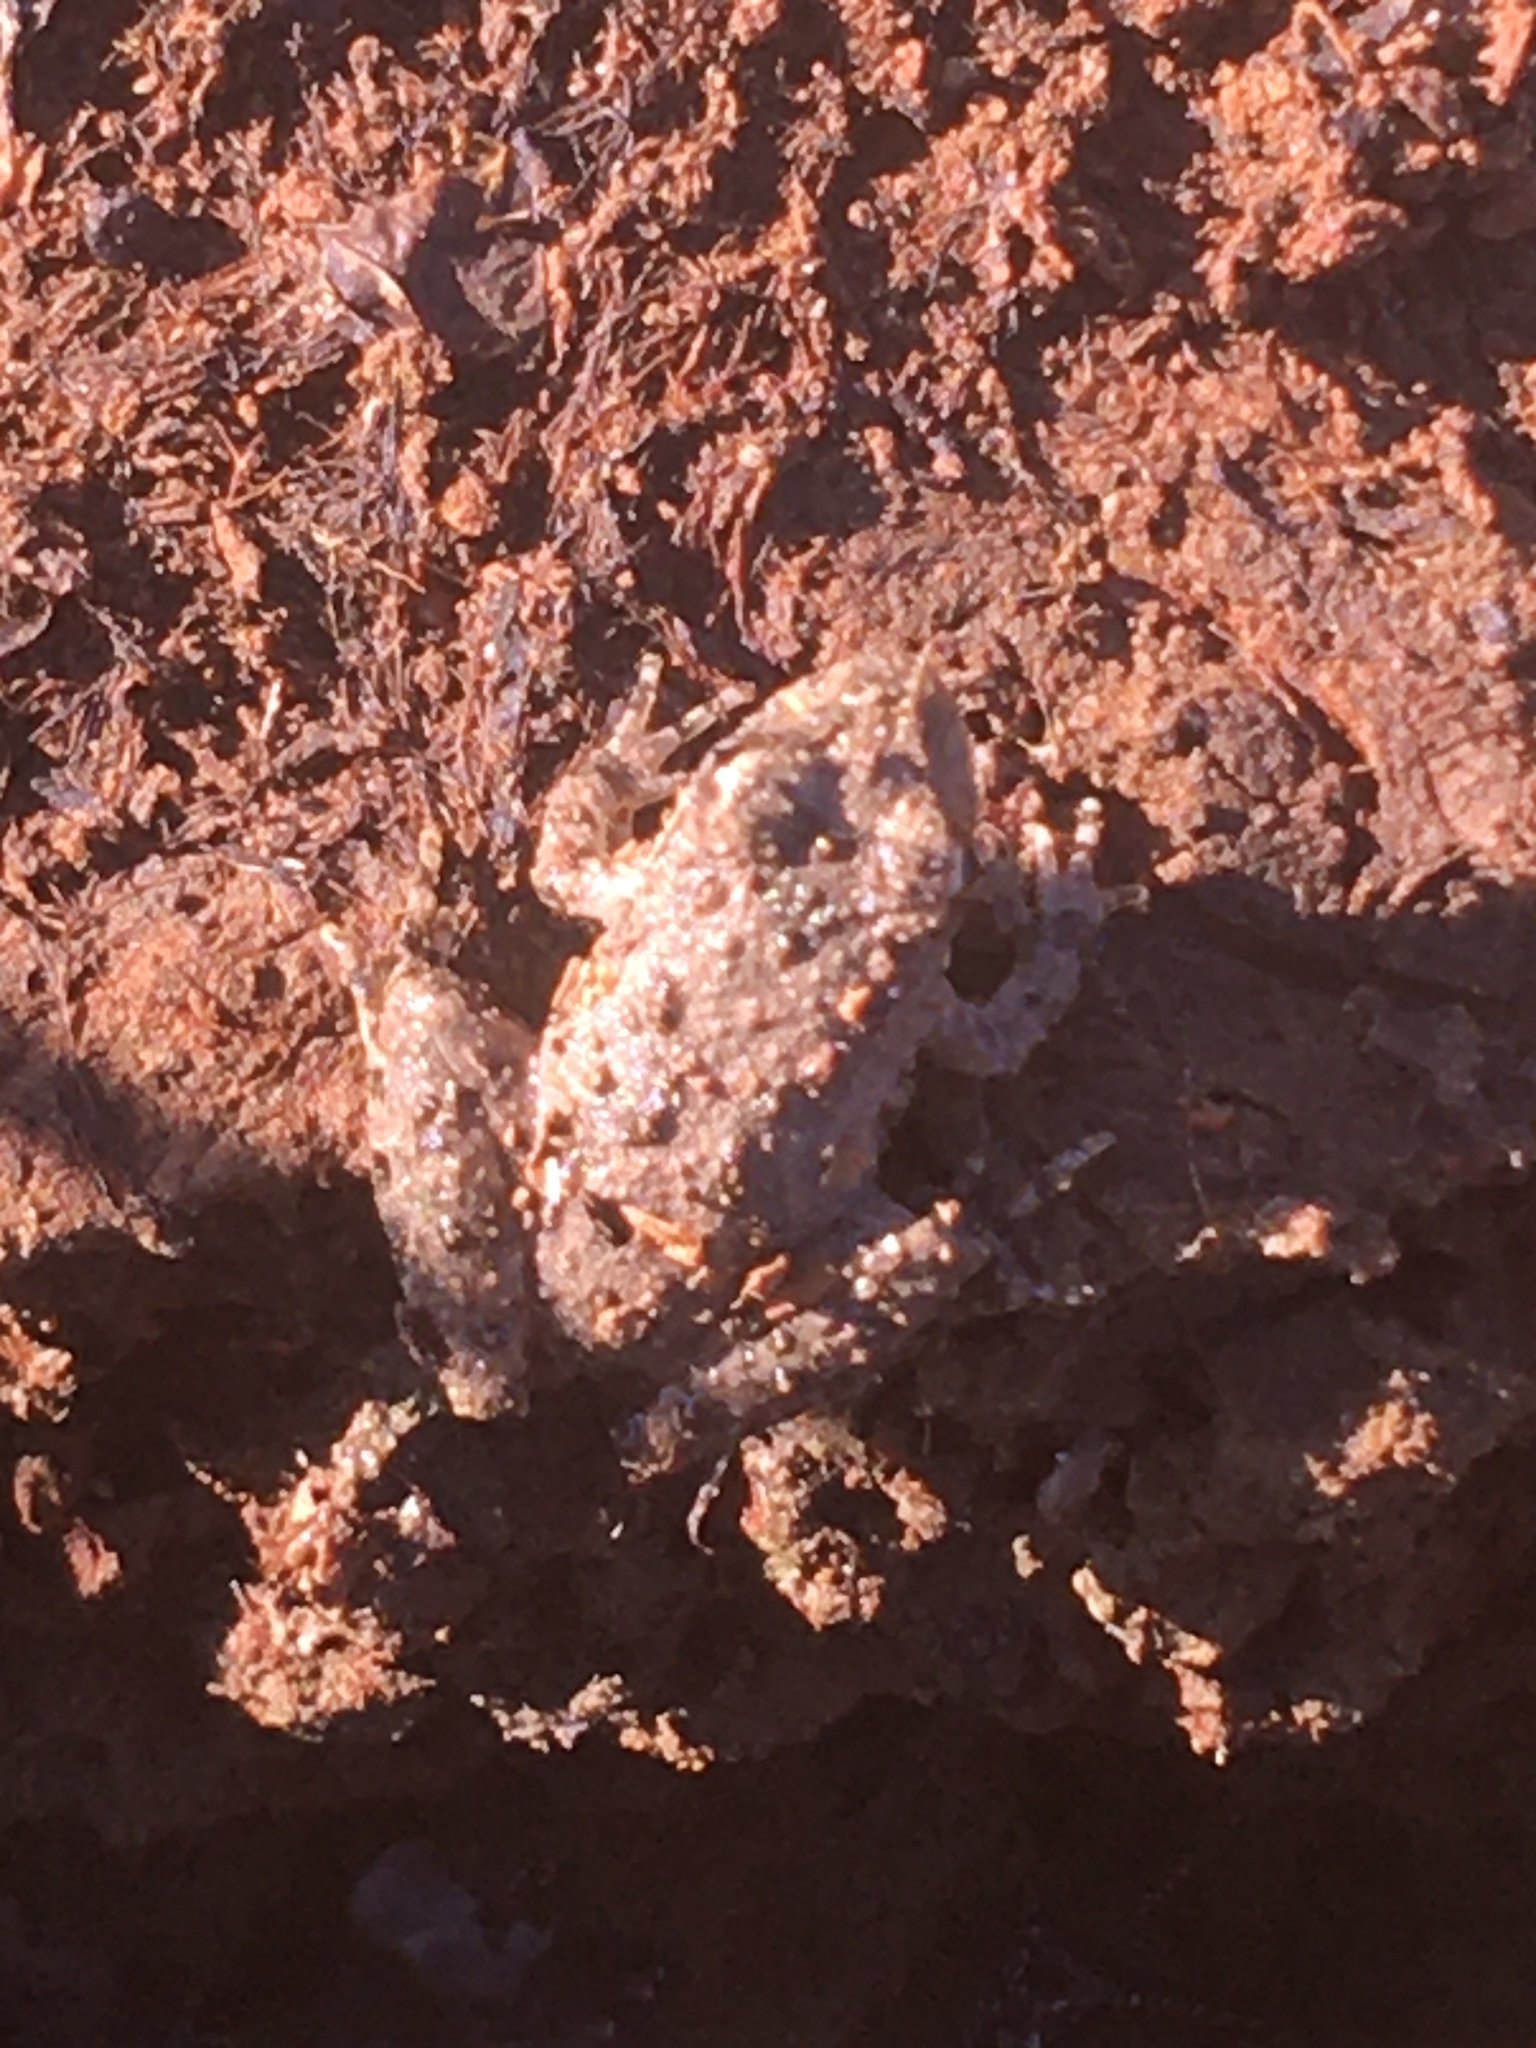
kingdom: Animalia
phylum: Chordata
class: Amphibia
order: Anura
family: Hylidae
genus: Acris
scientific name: Acris blanchardi
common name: Blanchard's cricket frog
